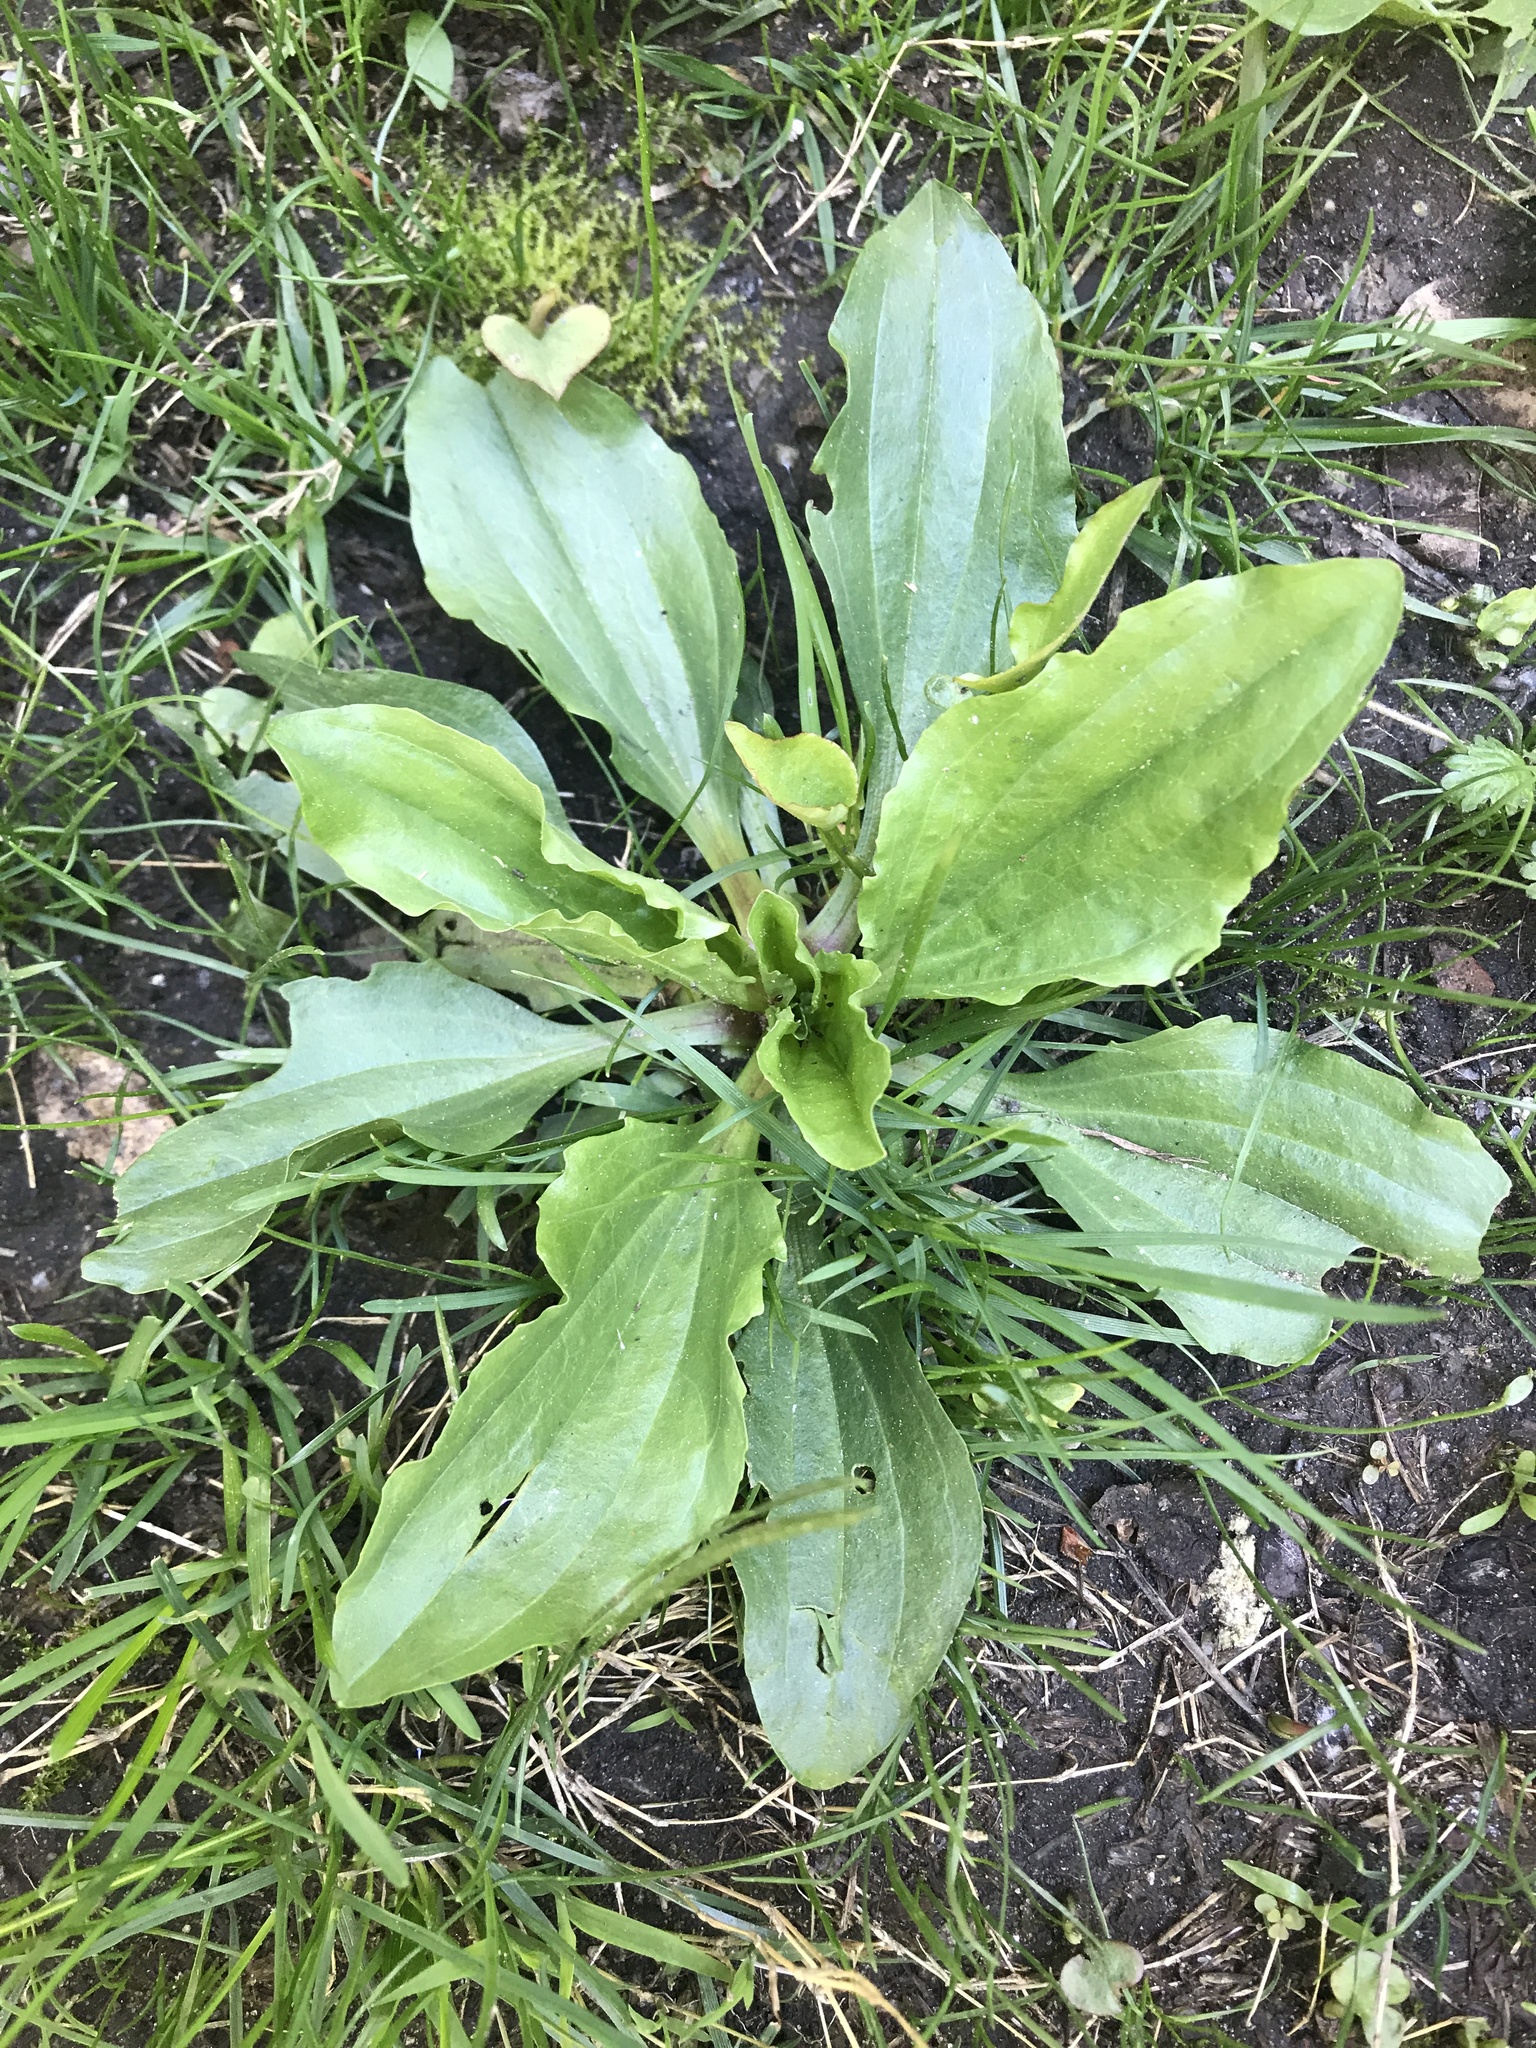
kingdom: Plantae
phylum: Tracheophyta
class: Magnoliopsida
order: Lamiales
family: Plantaginaceae
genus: Plantago
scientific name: Plantago rugelii
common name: American plantain
